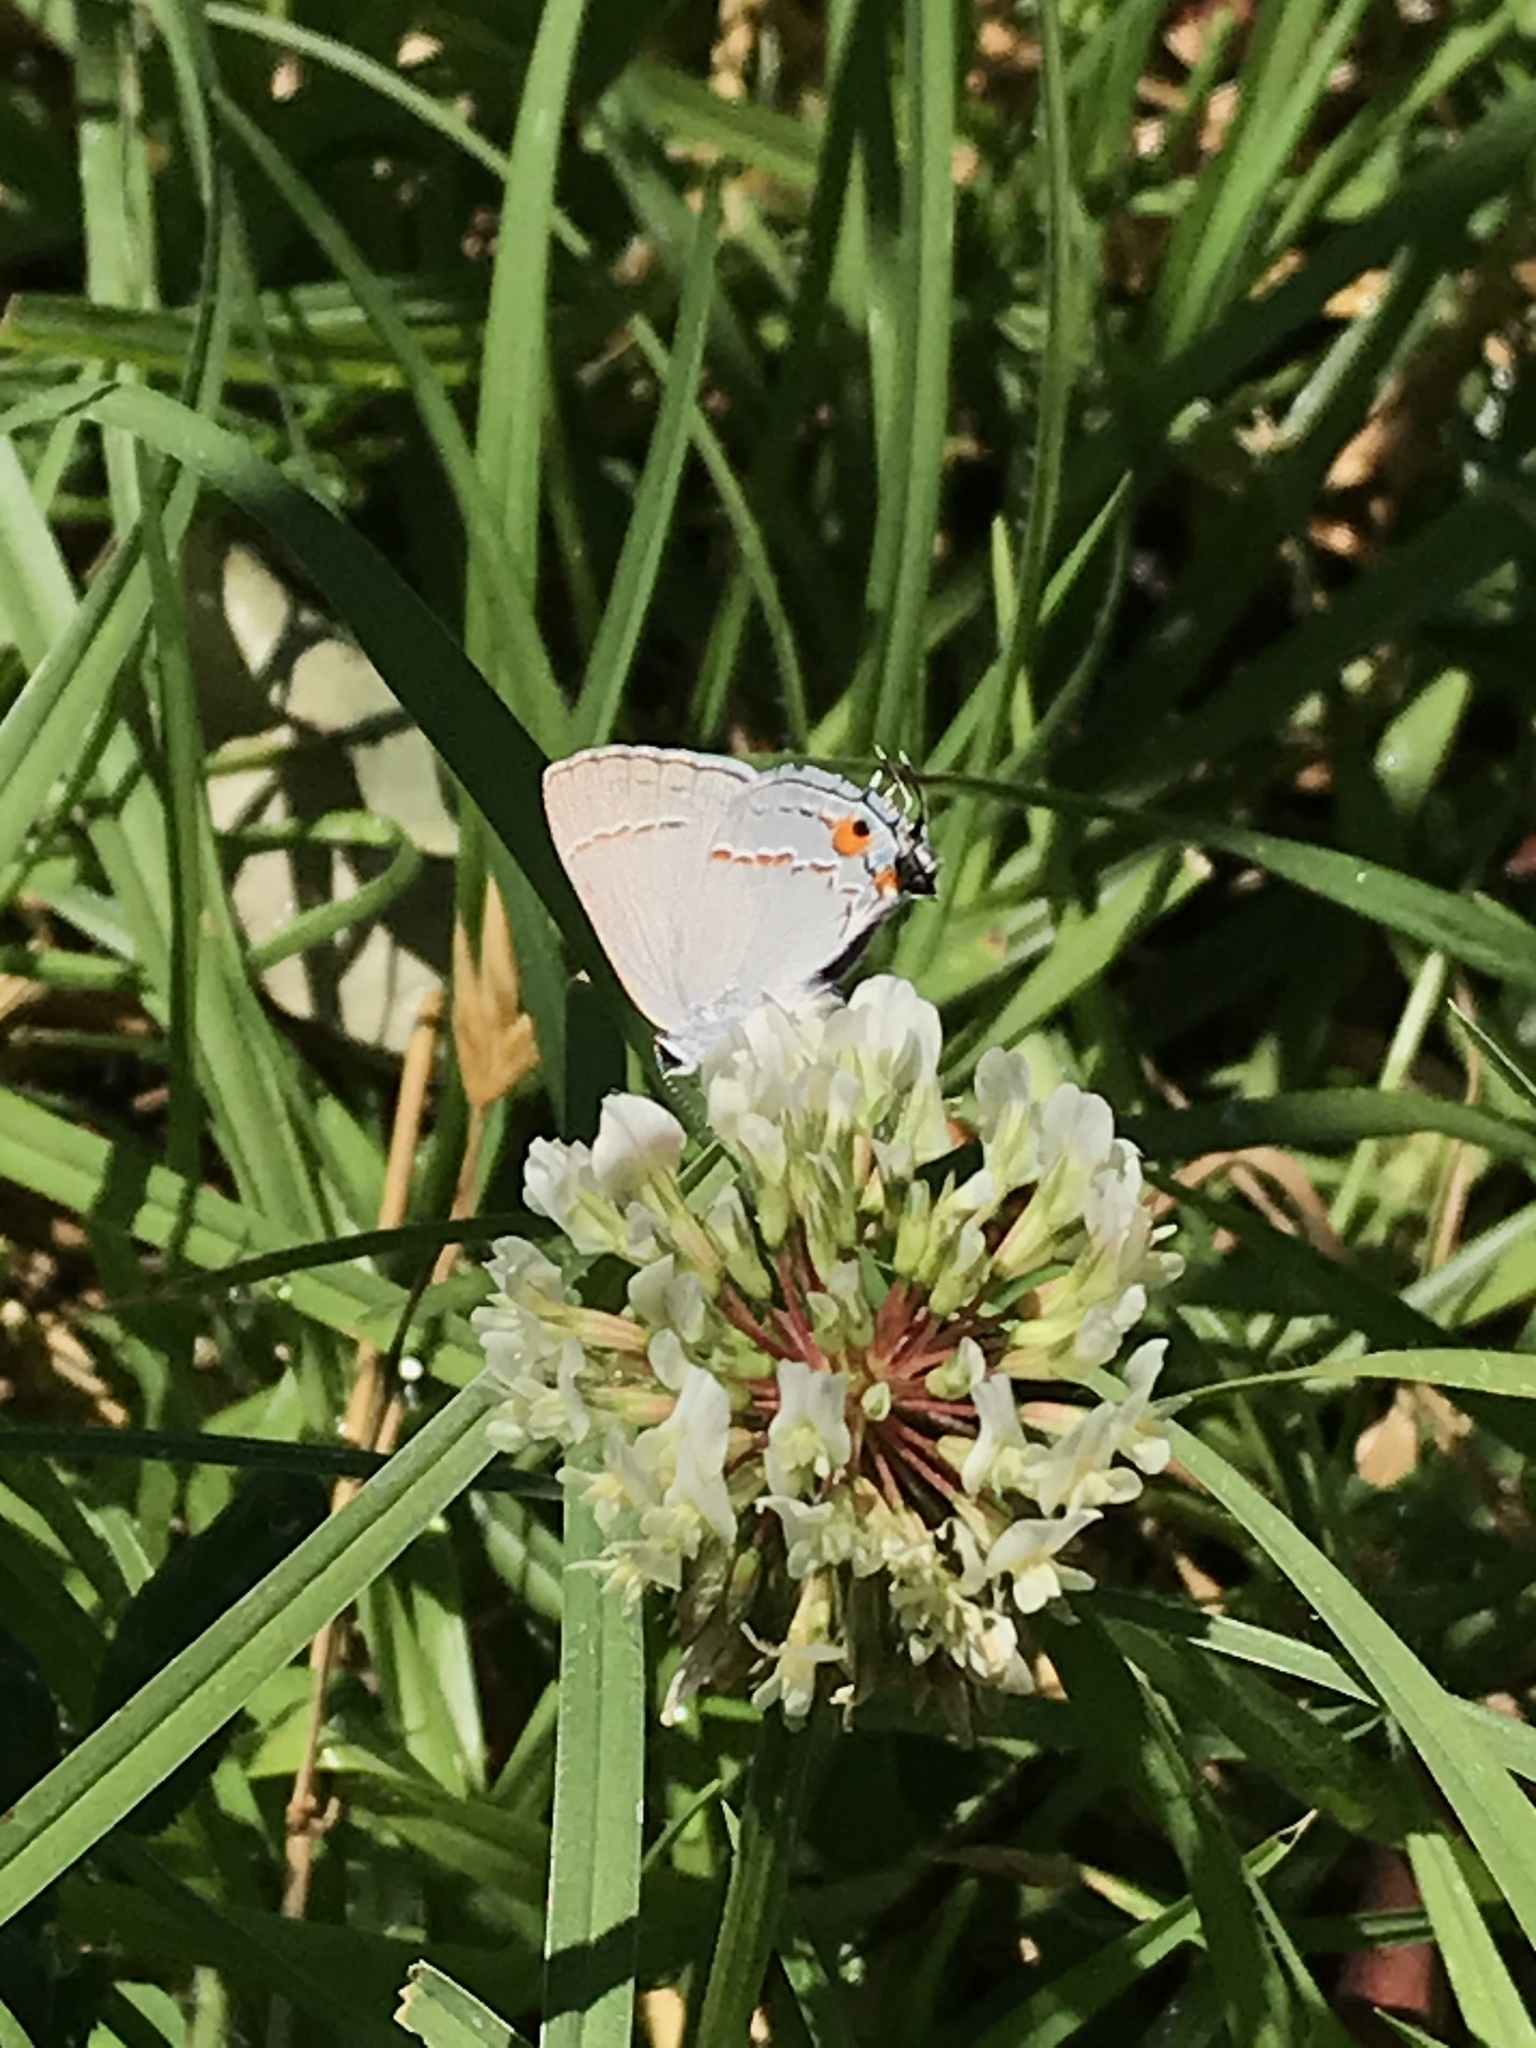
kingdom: Animalia
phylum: Arthropoda
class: Insecta
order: Lepidoptera
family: Lycaenidae
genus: Strymon
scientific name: Strymon melinus
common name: Gray hairstreak
